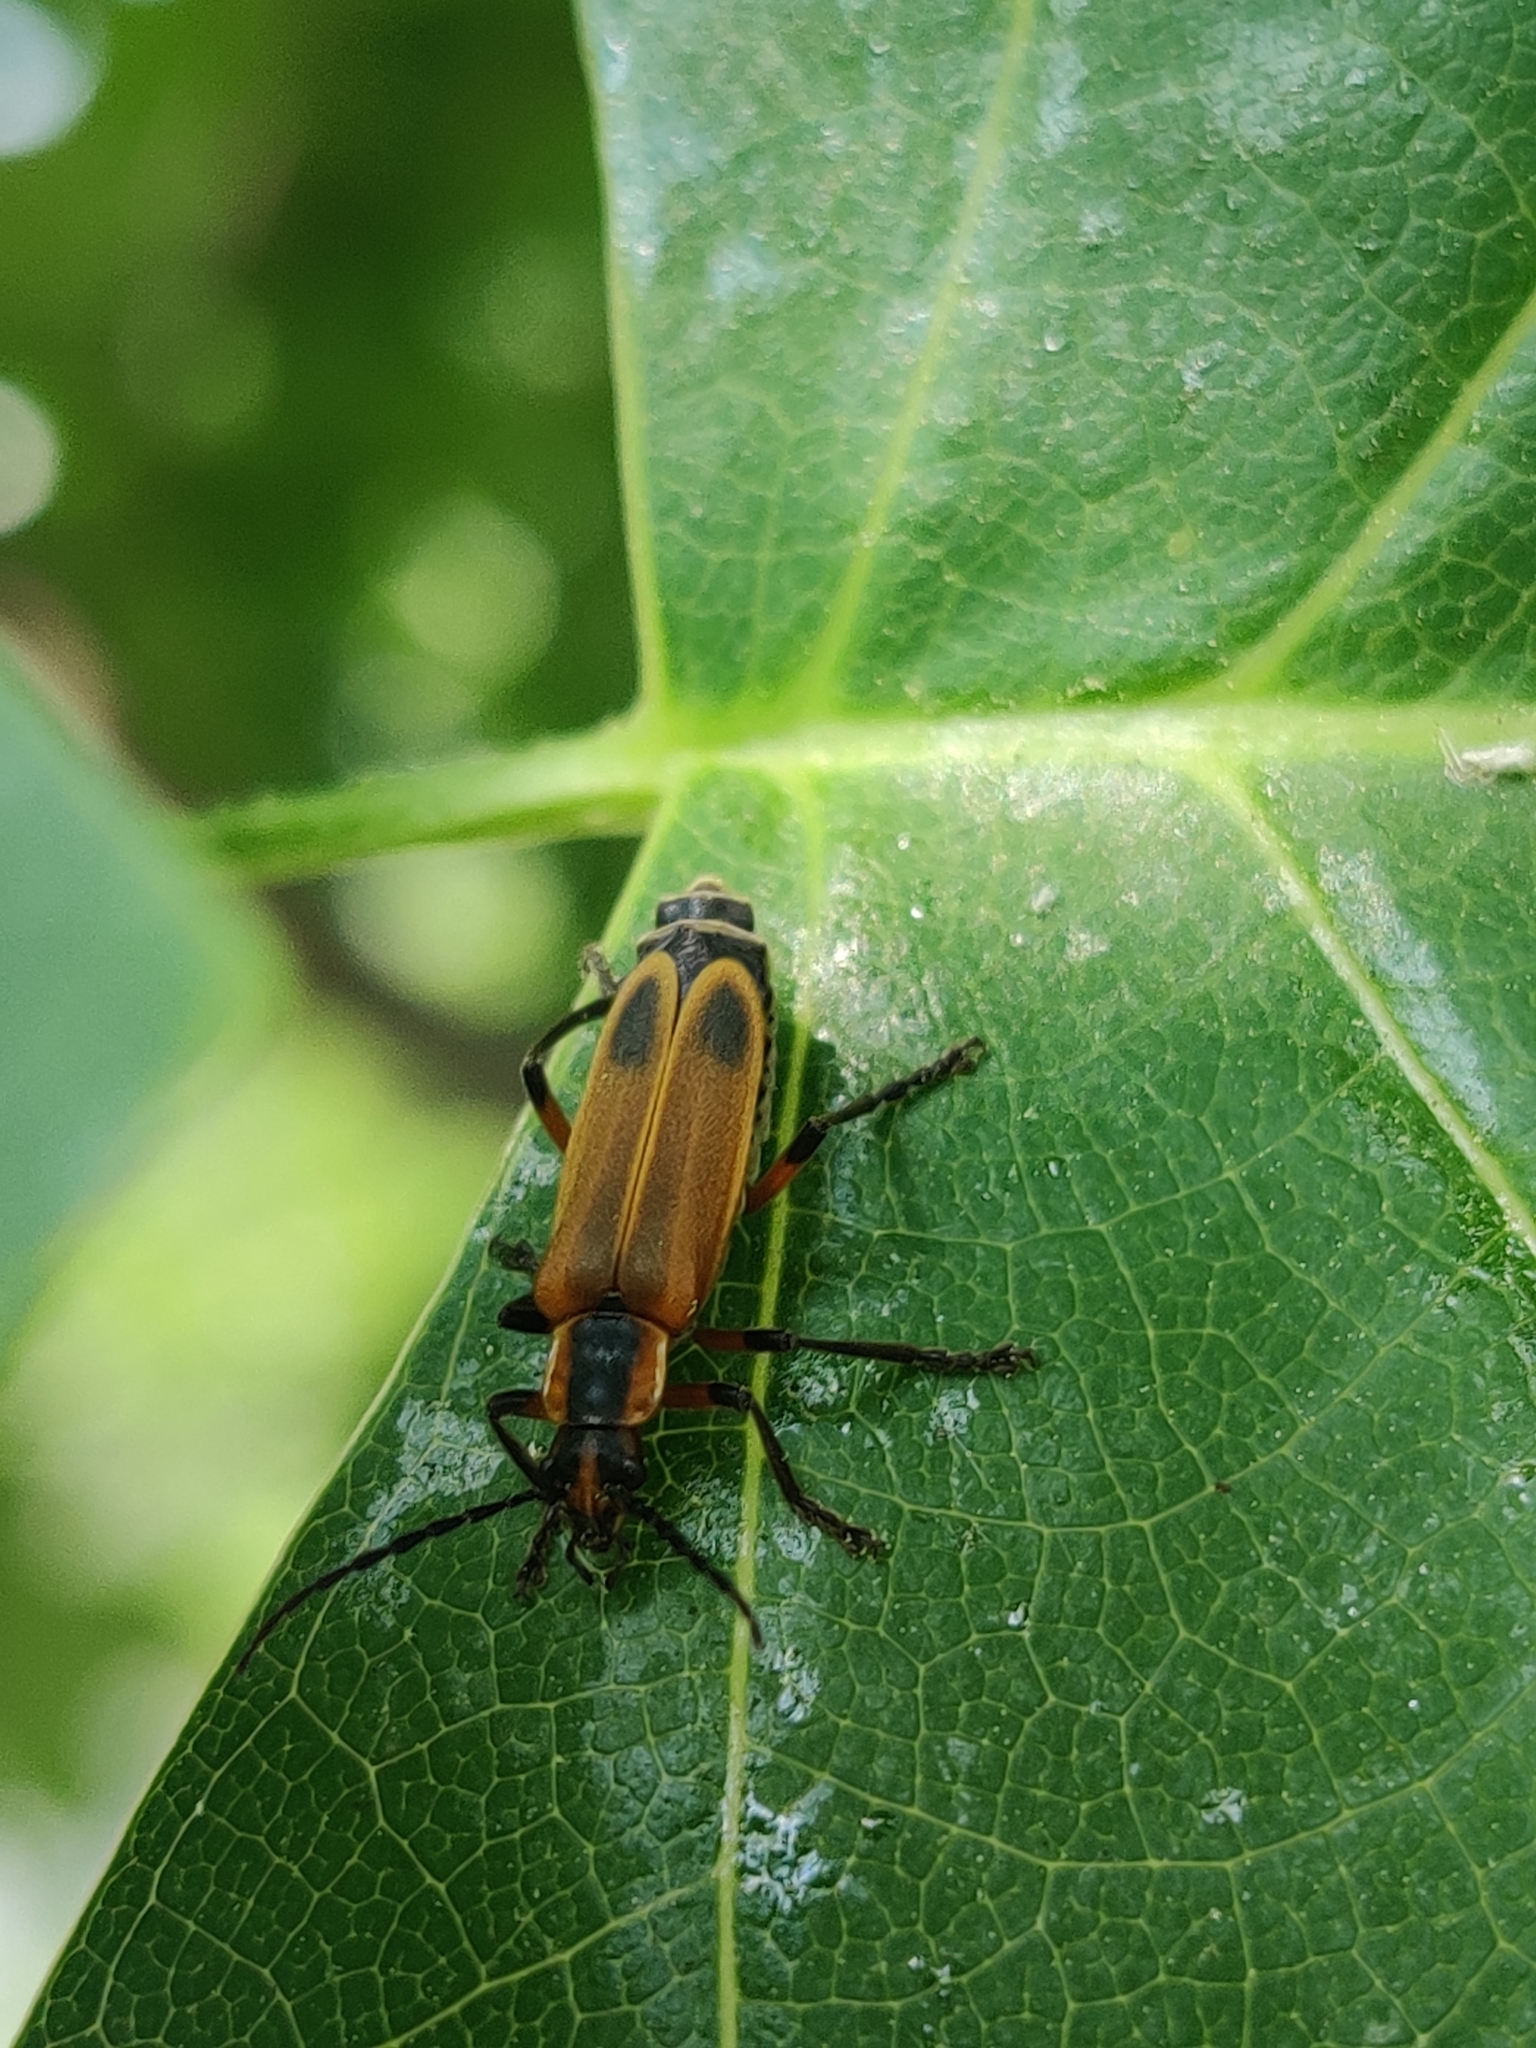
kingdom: Animalia
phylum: Arthropoda
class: Insecta
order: Coleoptera
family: Cantharidae
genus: Chauliognathus
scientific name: Chauliognathus marginatus
